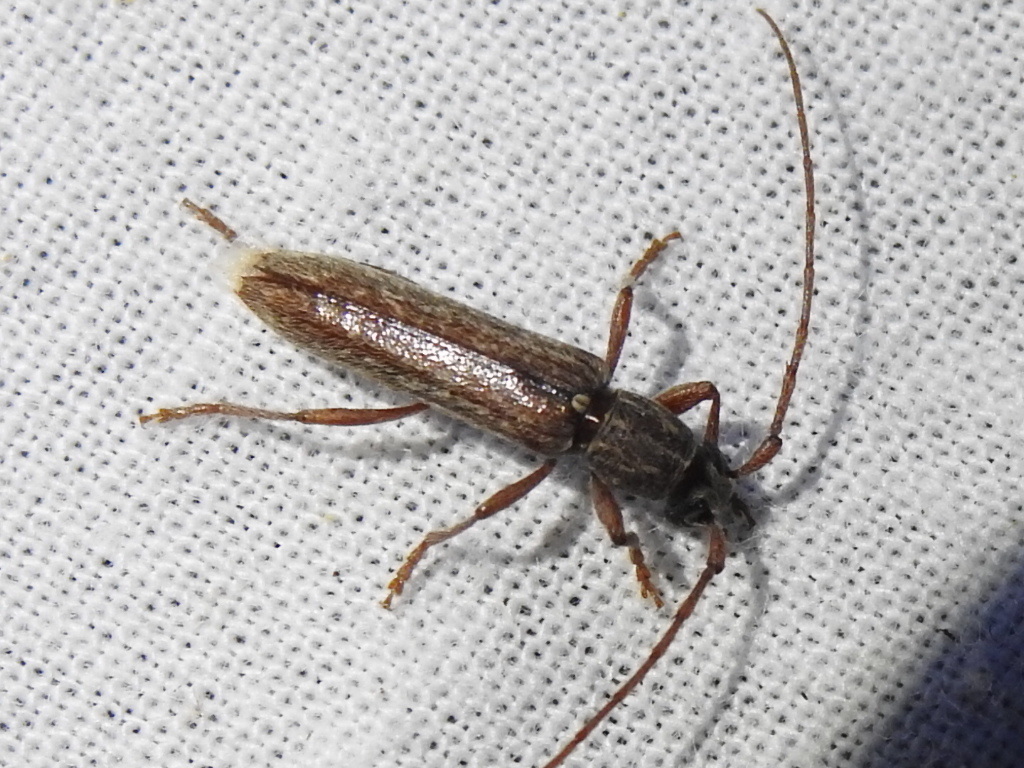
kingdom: Animalia
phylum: Arthropoda
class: Insecta
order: Coleoptera
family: Cerambycidae
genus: Anelaphus
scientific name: Anelaphus villosus
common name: Twig pruner
